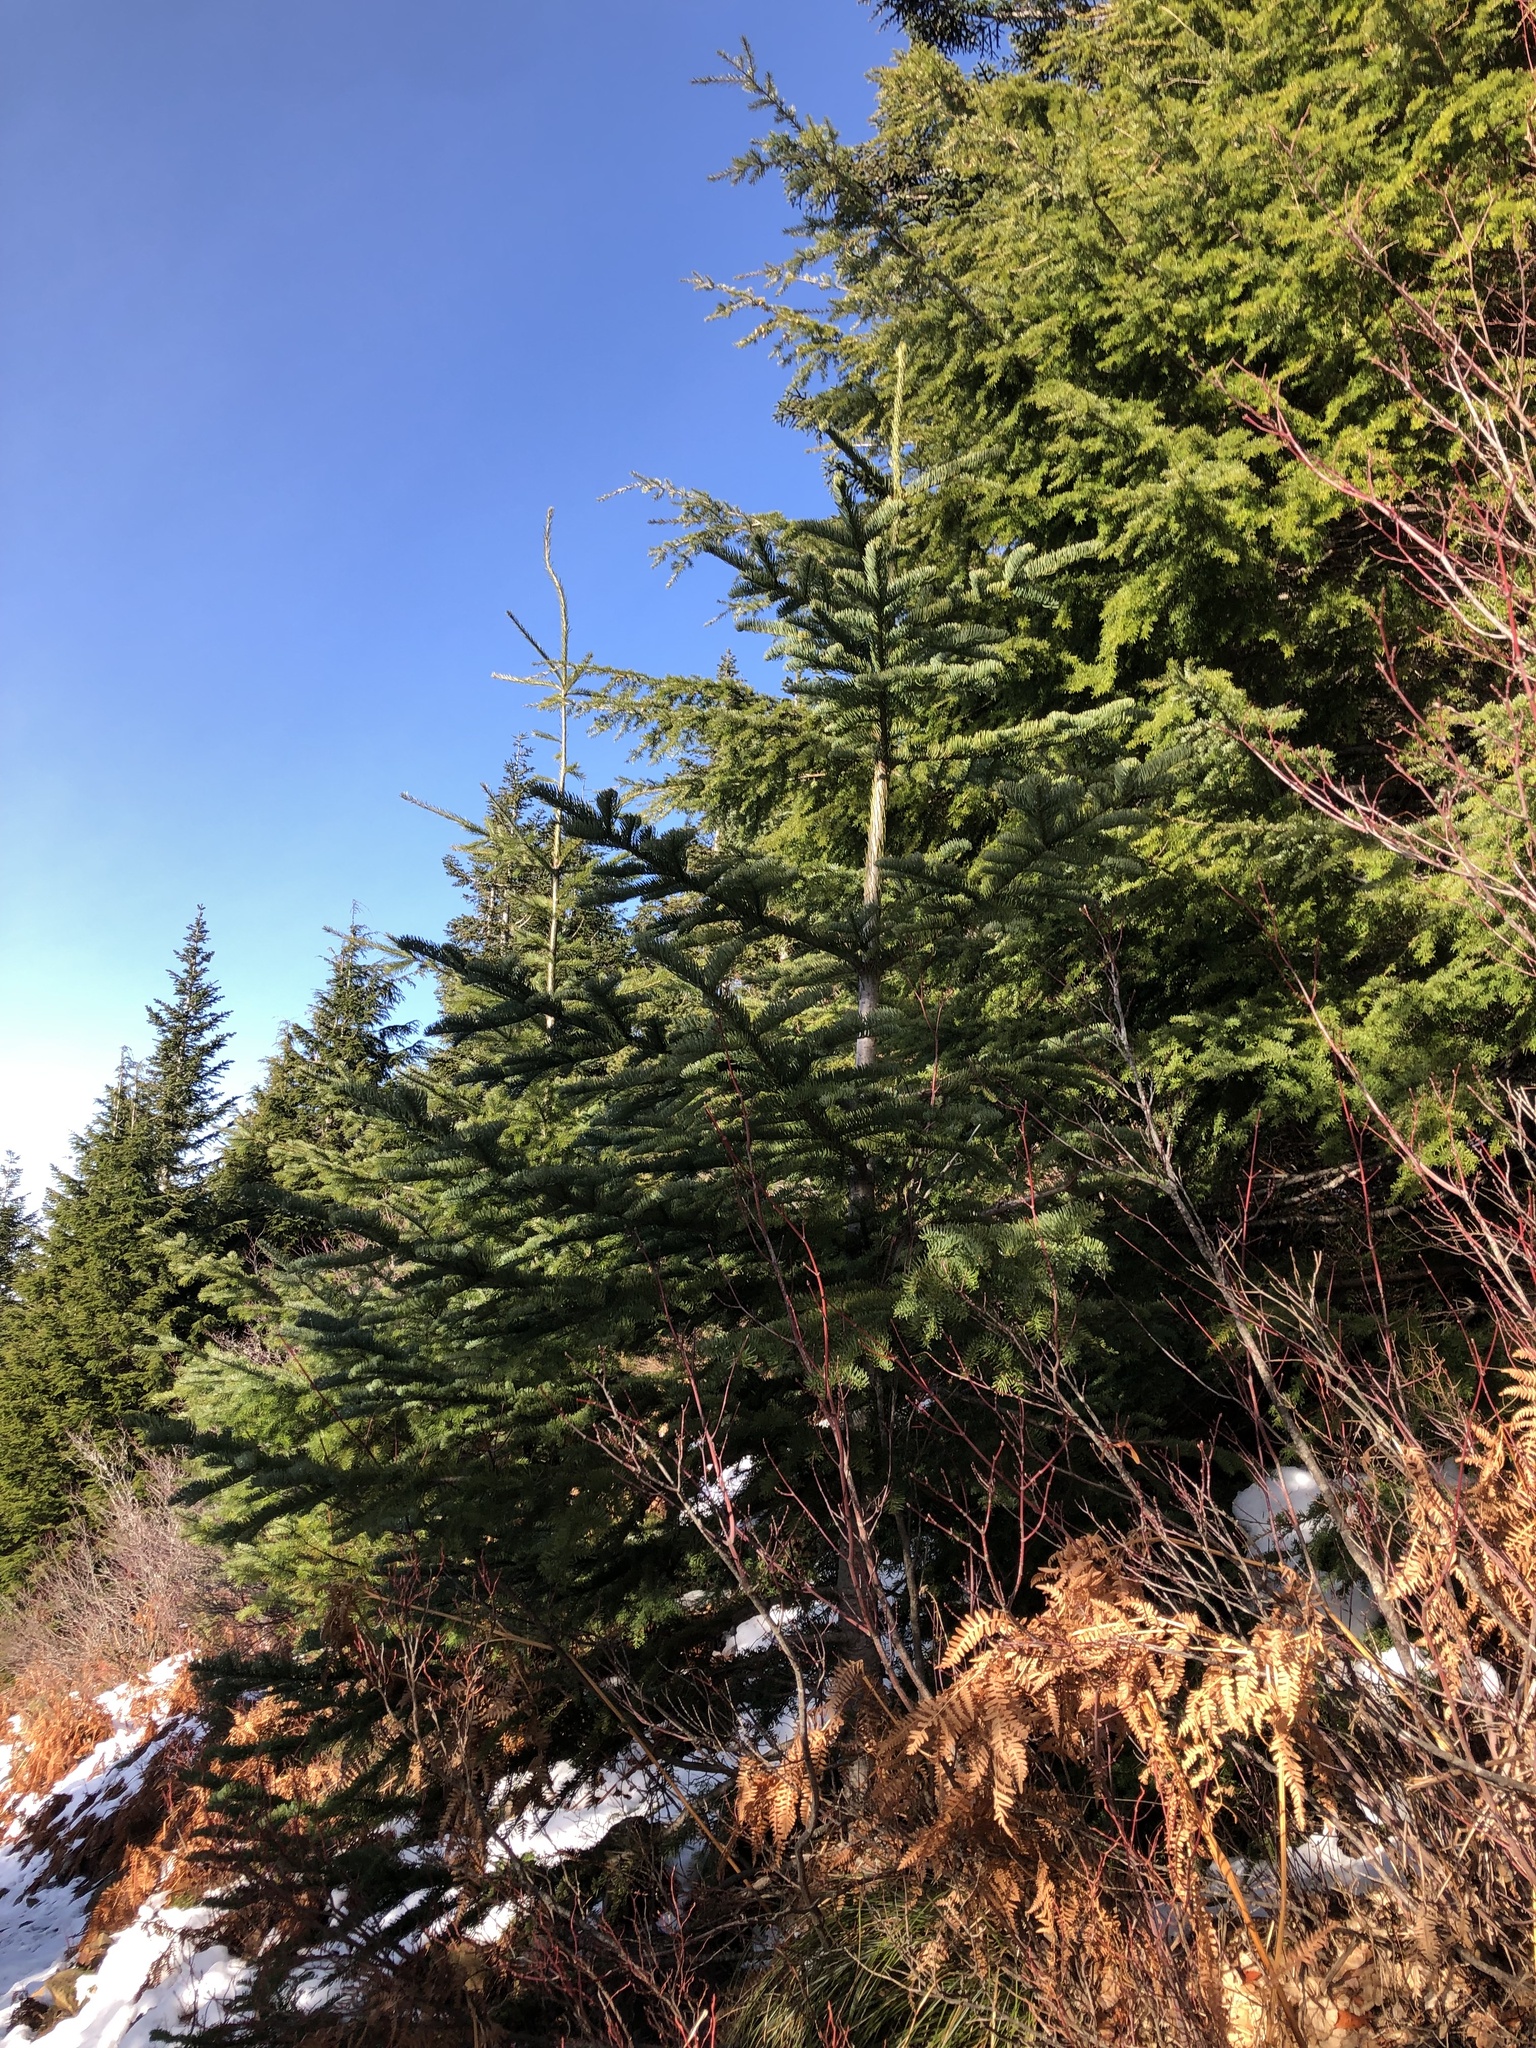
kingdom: Plantae
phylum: Tracheophyta
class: Pinopsida
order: Pinales
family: Pinaceae
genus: Abies
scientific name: Abies procera
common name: Noble fir
